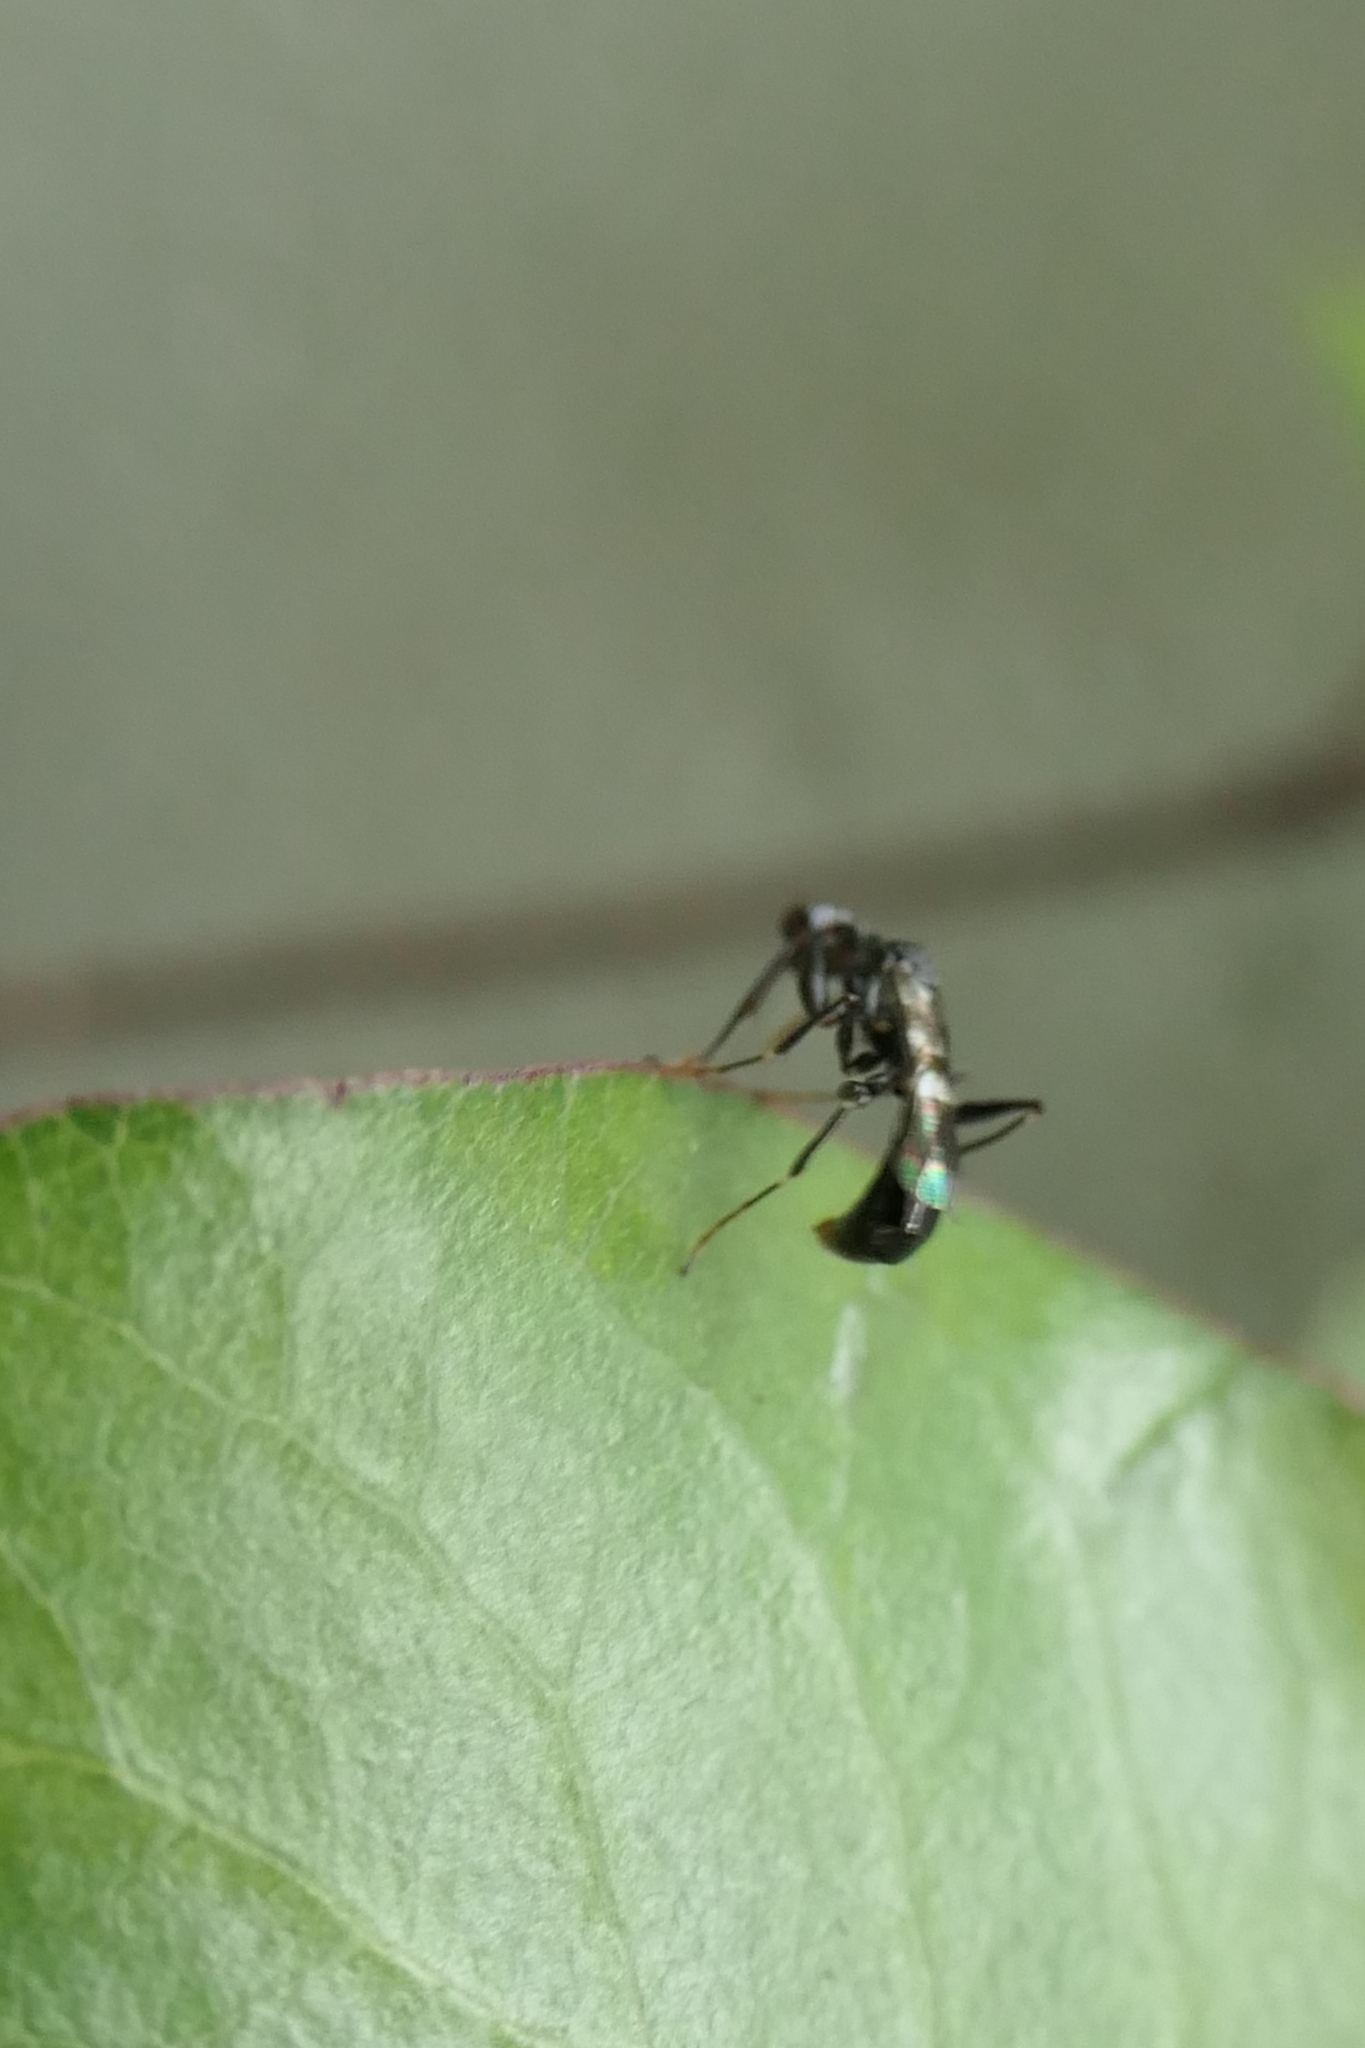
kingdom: Animalia
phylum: Arthropoda
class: Insecta
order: Hymenoptera
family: Dryinidae
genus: Dryinus
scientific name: Dryinus koebelei
